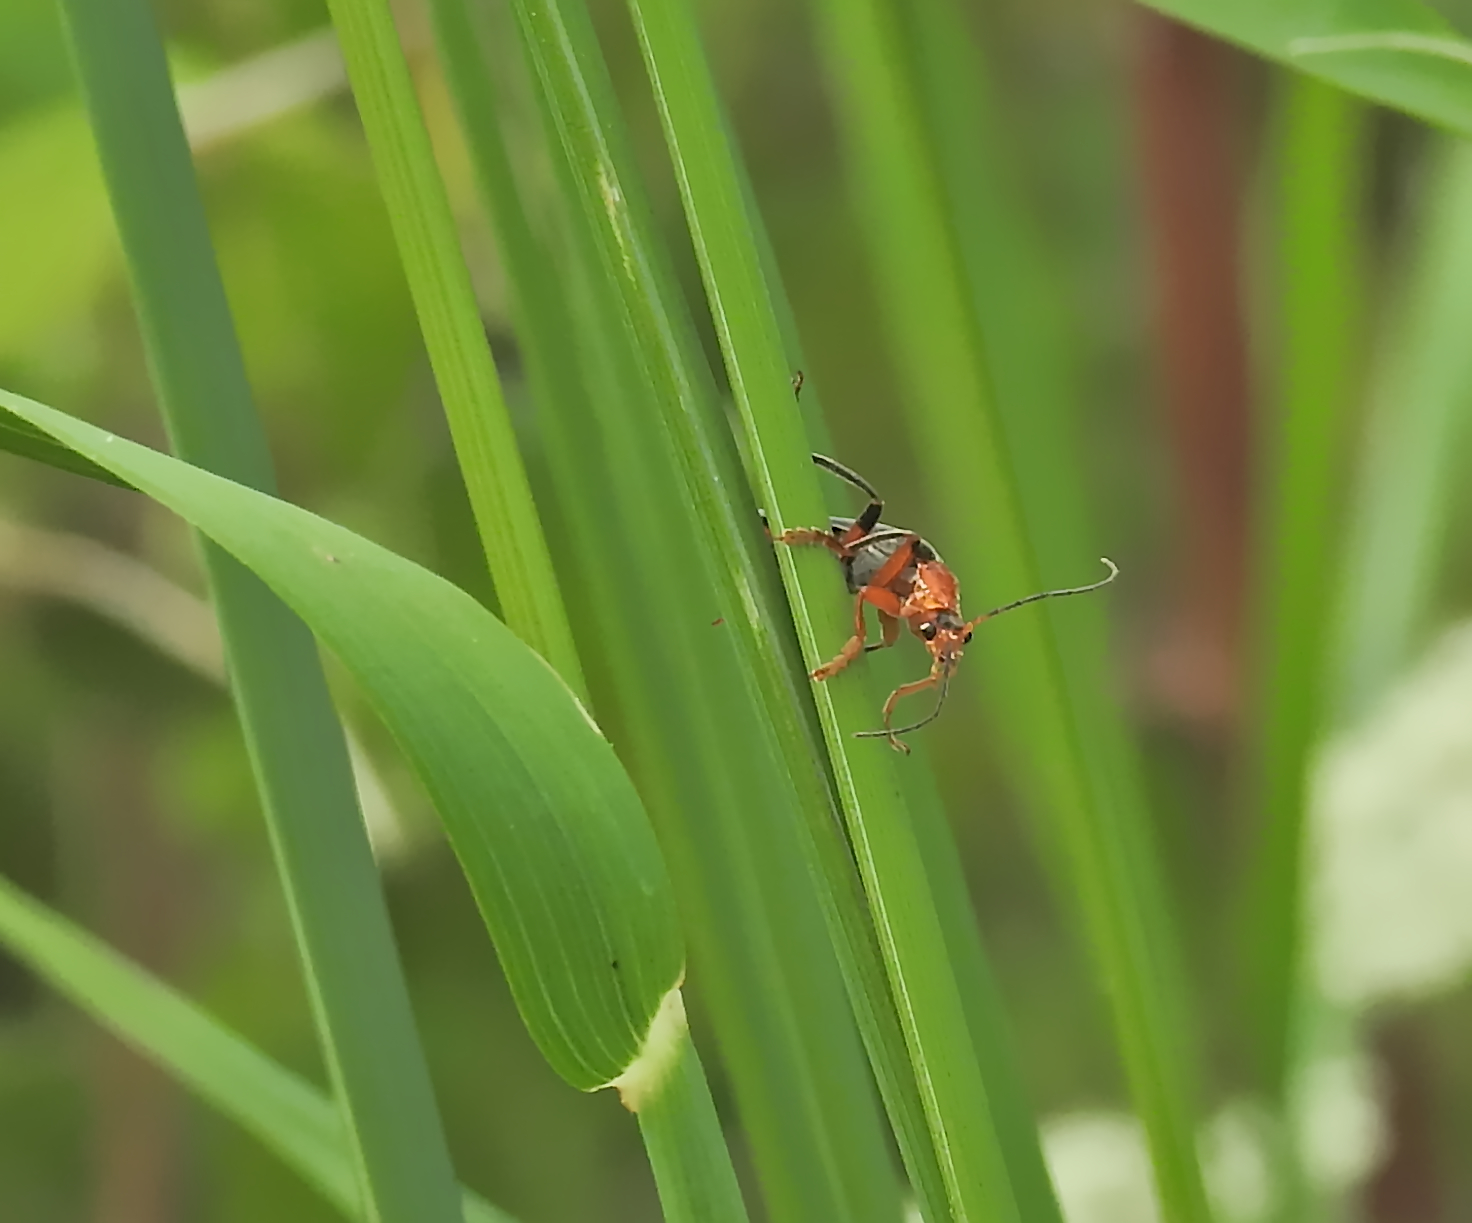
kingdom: Animalia
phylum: Arthropoda
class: Insecta
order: Coleoptera
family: Cantharidae
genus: Cantharis
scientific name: Cantharis livida
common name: Livid soldier beetle
